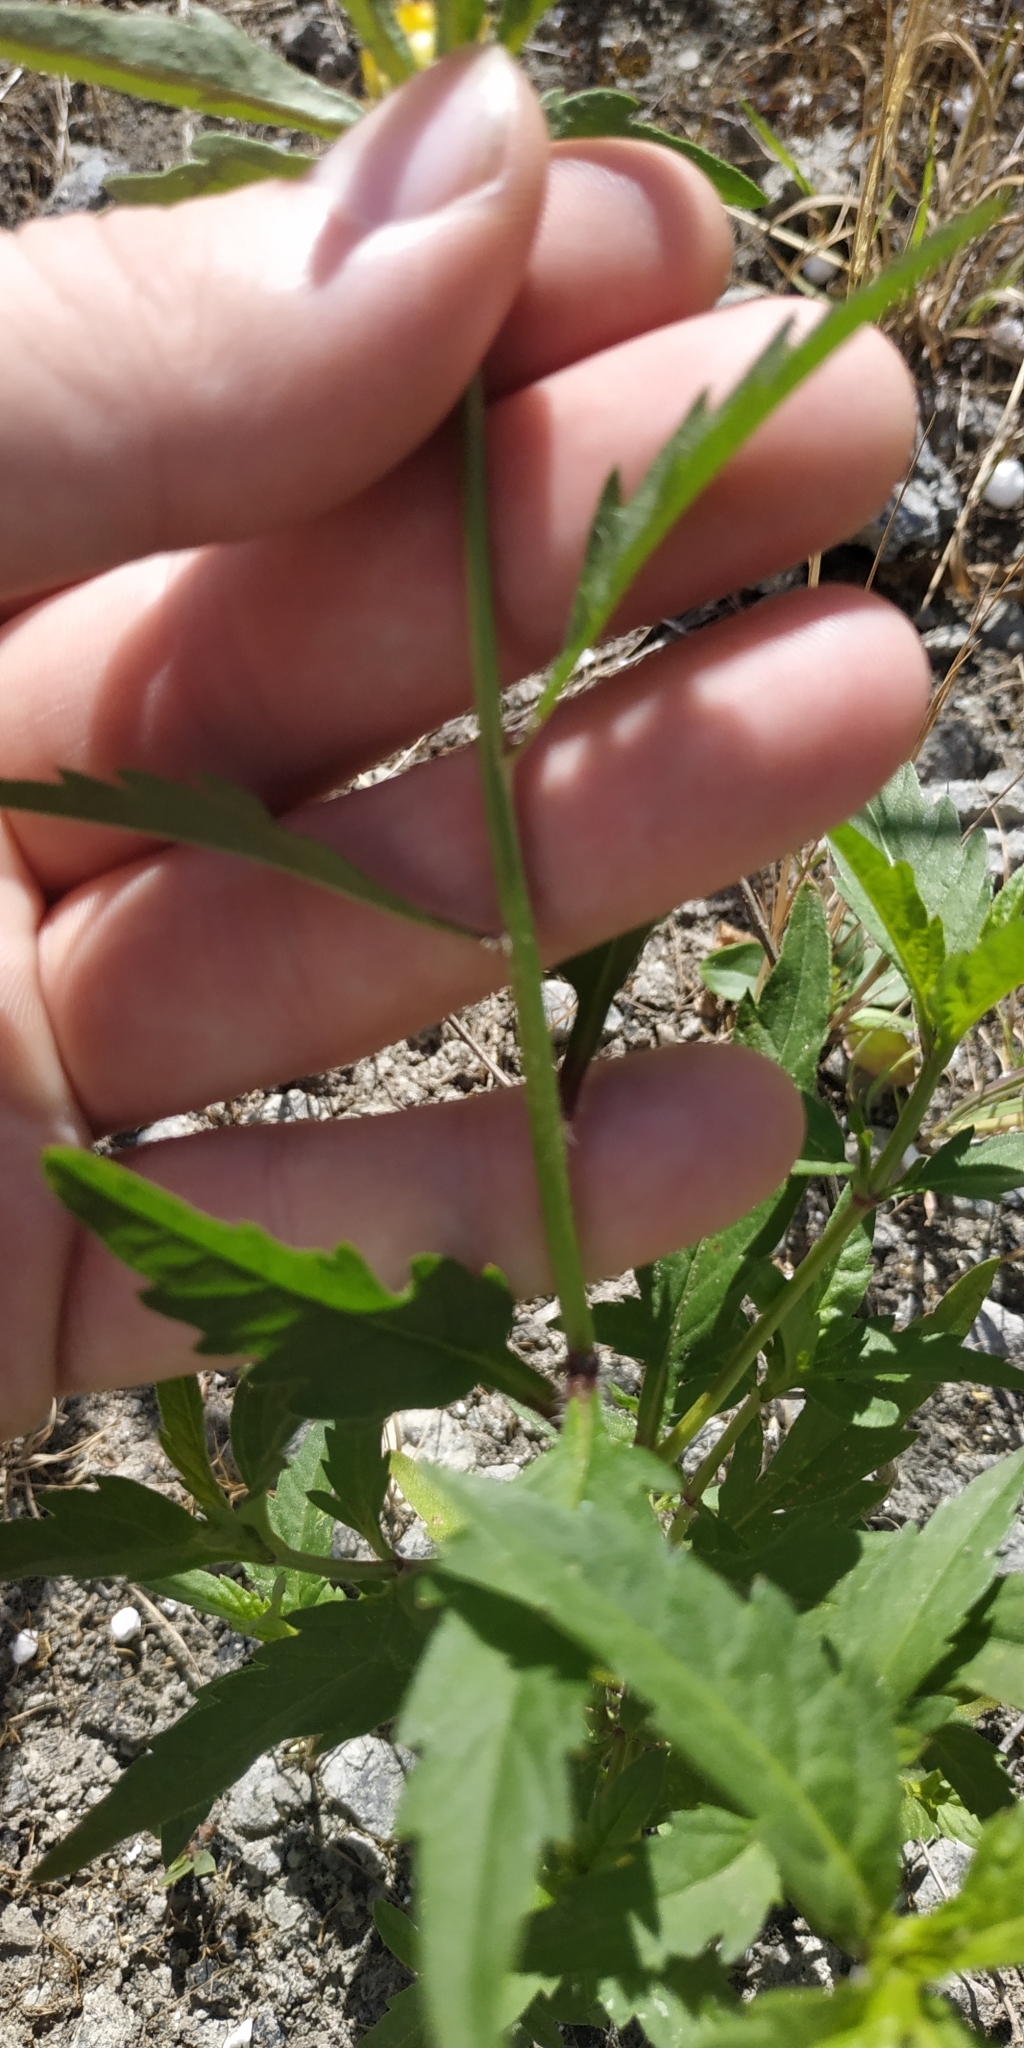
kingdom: Plantae
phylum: Tracheophyta
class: Magnoliopsida
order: Asterales
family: Asteraceae
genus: Bidens
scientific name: Bidens tripartita
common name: Trifid bur-marigold
